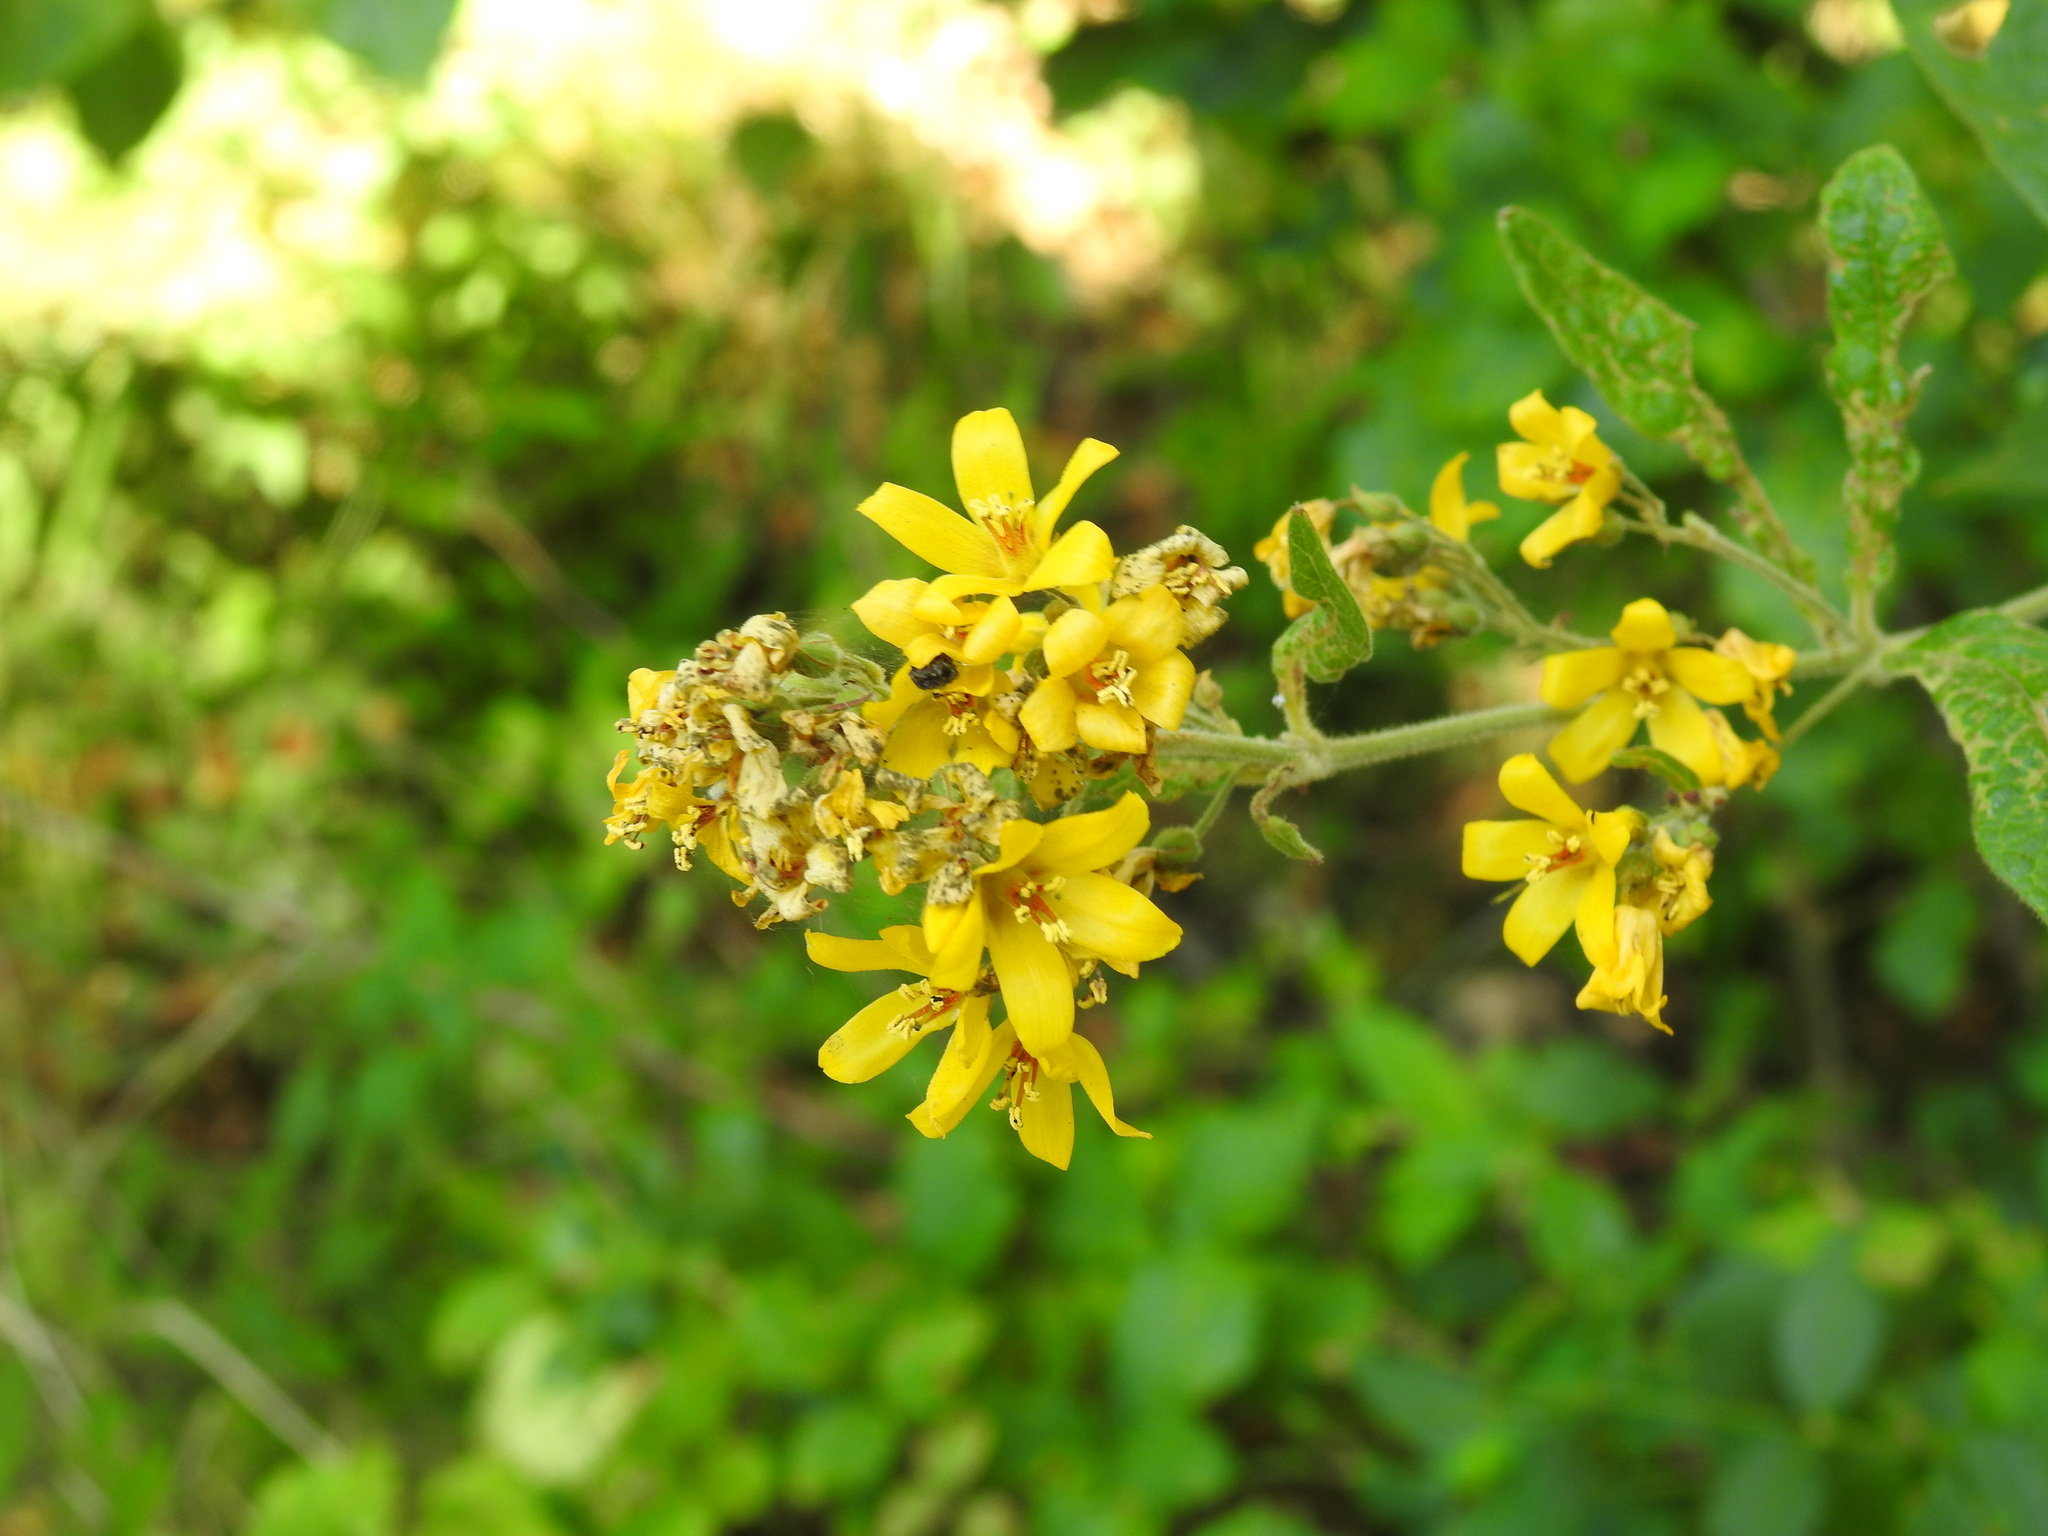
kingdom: Plantae
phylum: Tracheophyta
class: Magnoliopsida
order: Ericales
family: Primulaceae
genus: Lysimachia
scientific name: Lysimachia vulgaris
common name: Yellow loosestrife
